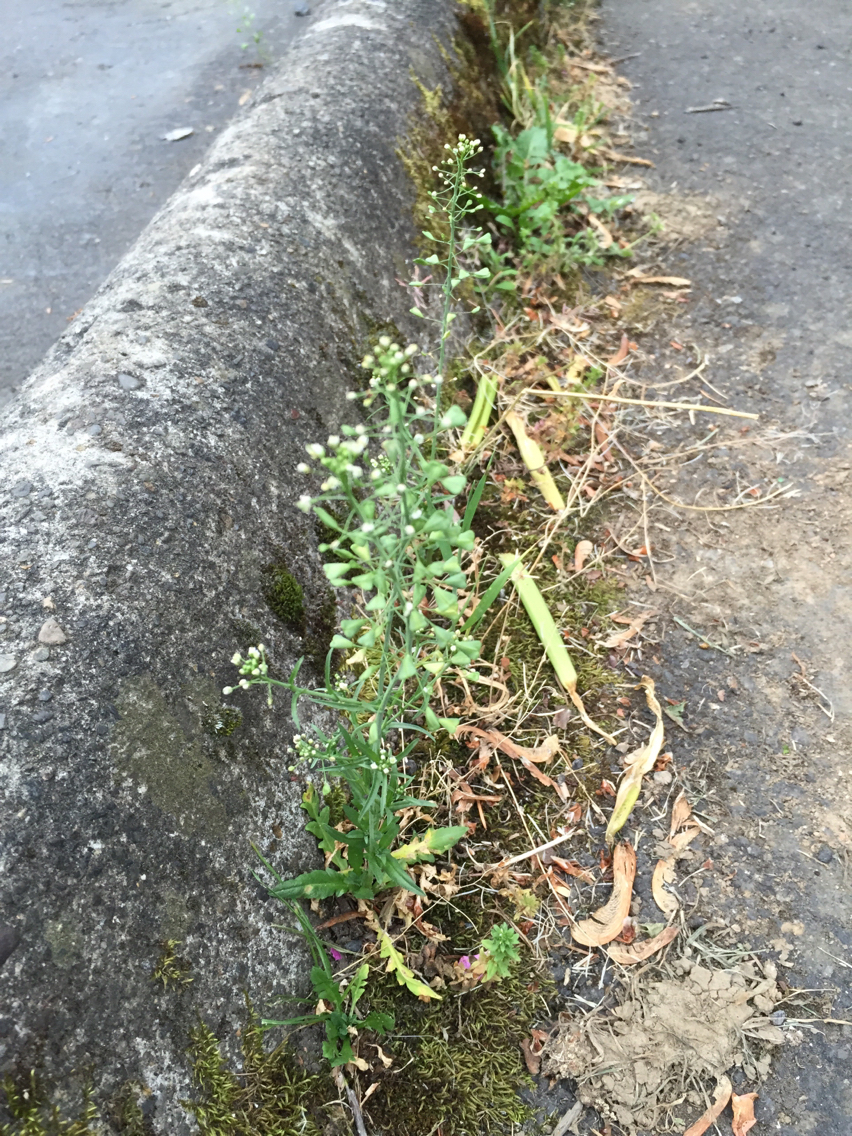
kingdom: Plantae
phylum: Tracheophyta
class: Magnoliopsida
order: Brassicales
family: Brassicaceae
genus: Capsella
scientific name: Capsella bursa-pastoris
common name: Shepherd's purse
